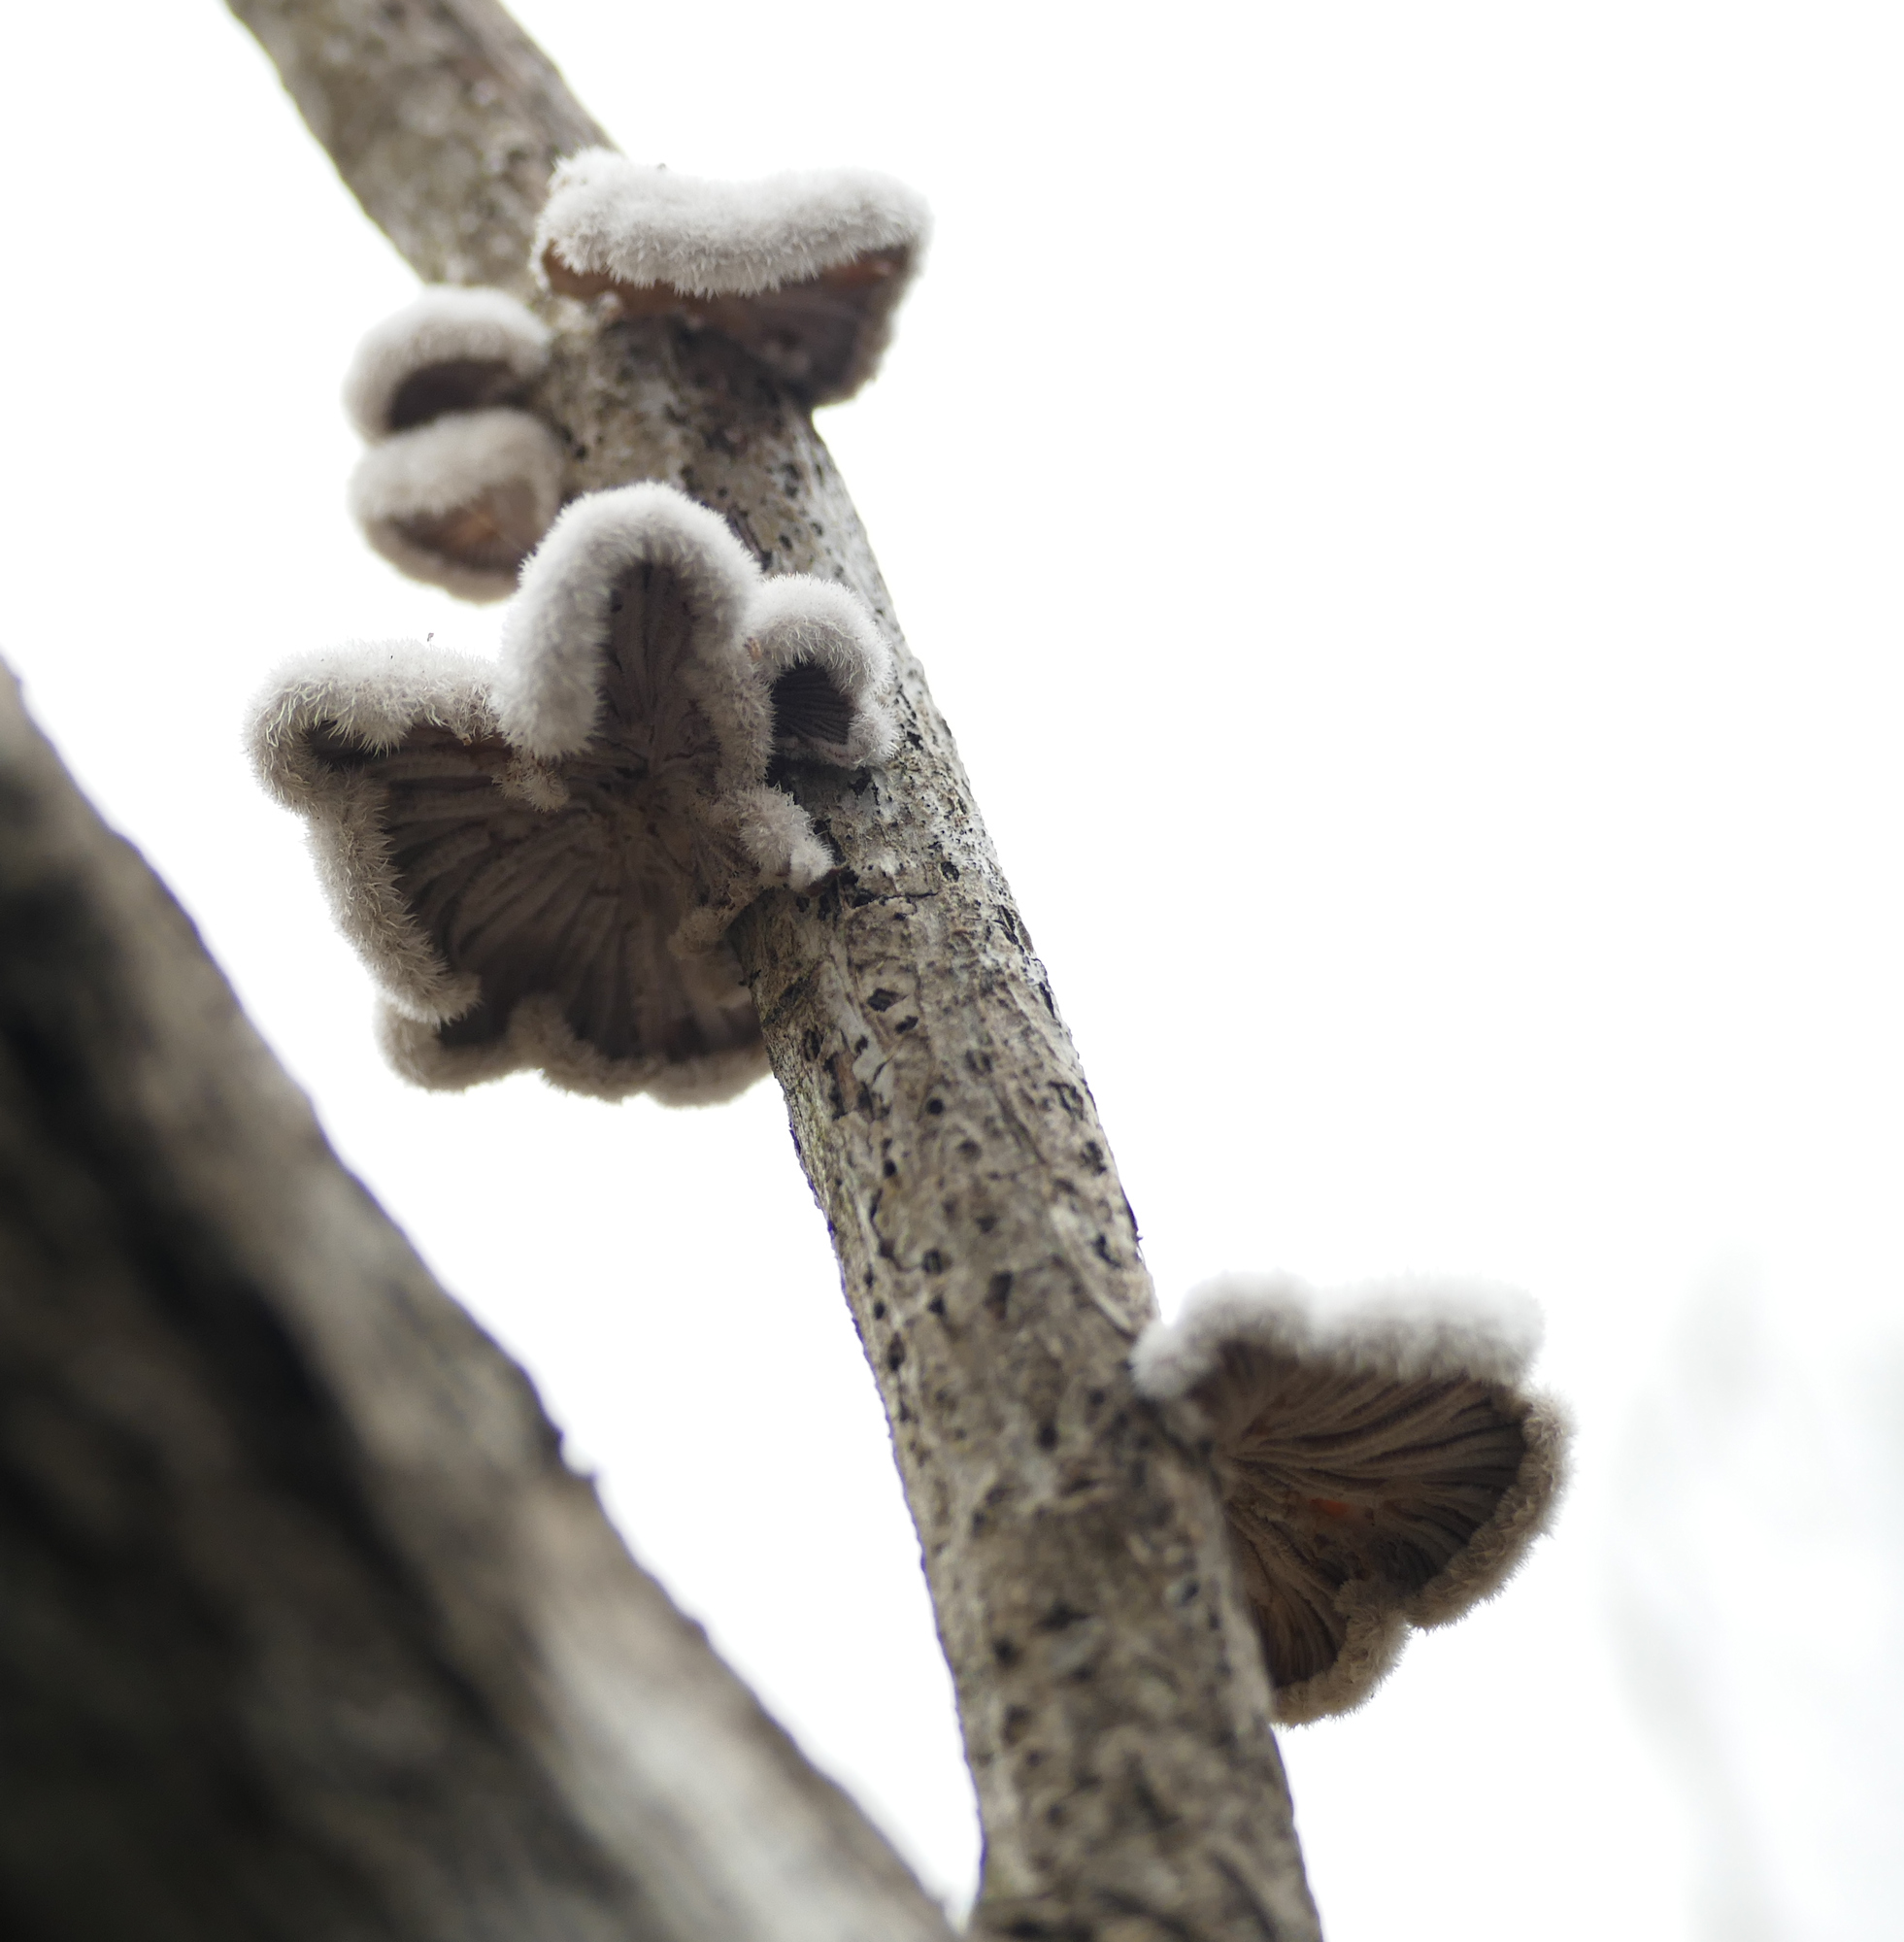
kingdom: Fungi
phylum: Basidiomycota
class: Agaricomycetes
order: Agaricales
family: Schizophyllaceae
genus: Schizophyllum
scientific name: Schizophyllum commune
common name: Common porecrust
